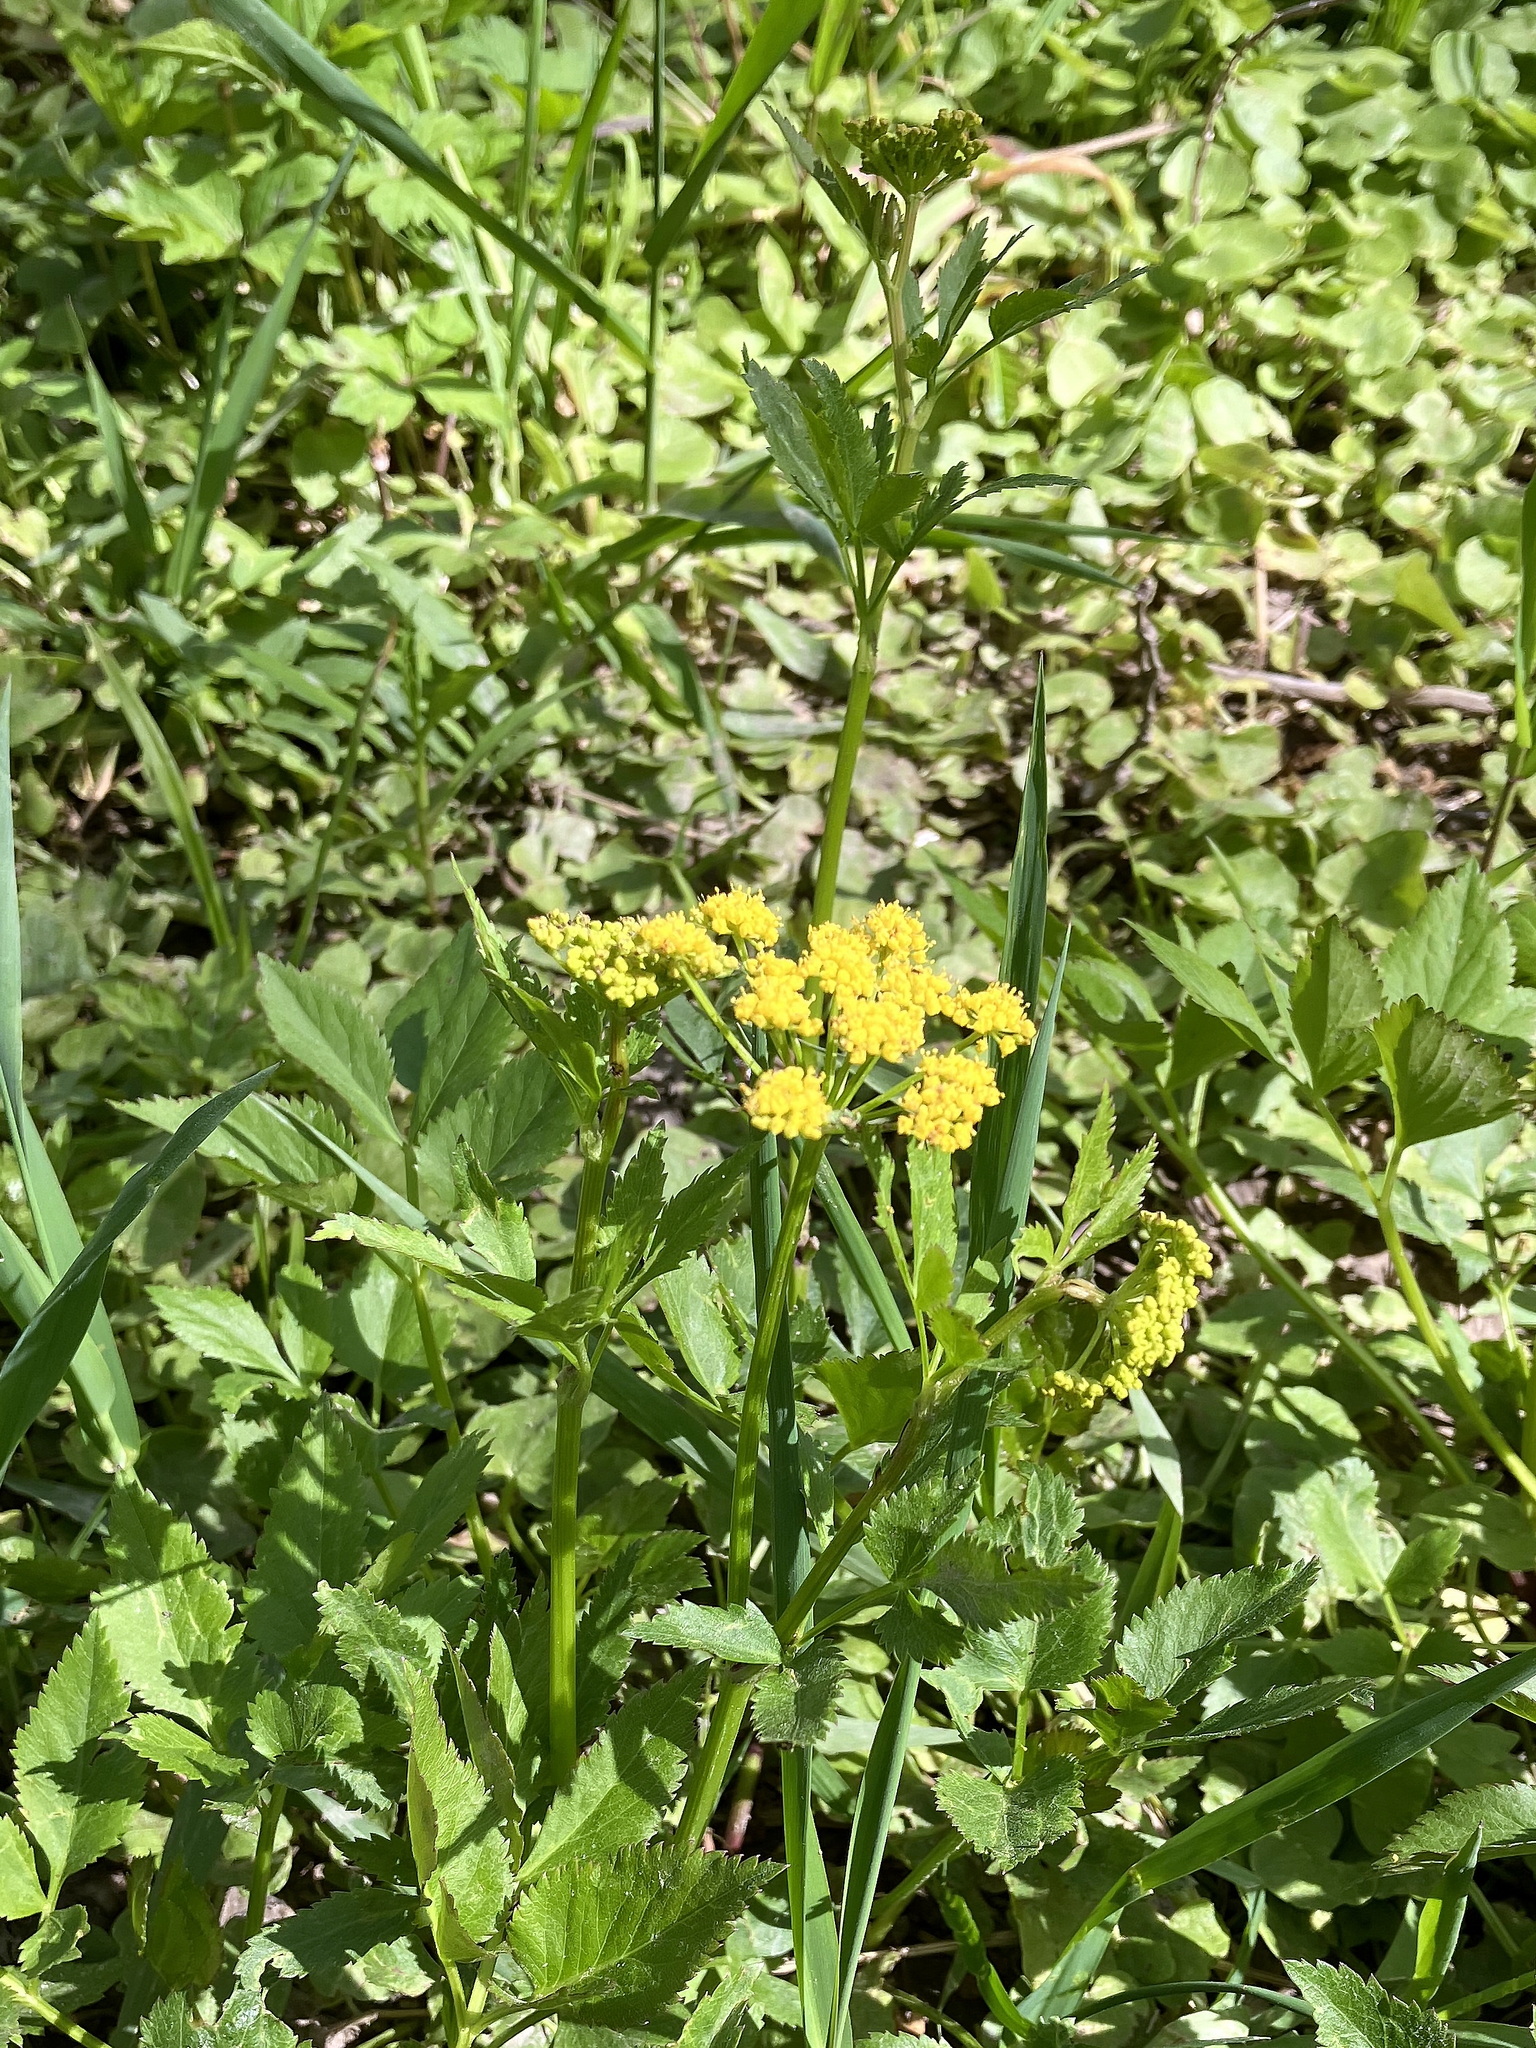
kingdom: Plantae
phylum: Tracheophyta
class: Magnoliopsida
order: Apiales
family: Apiaceae
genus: Zizia
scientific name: Zizia aurea
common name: Golden alexanders
